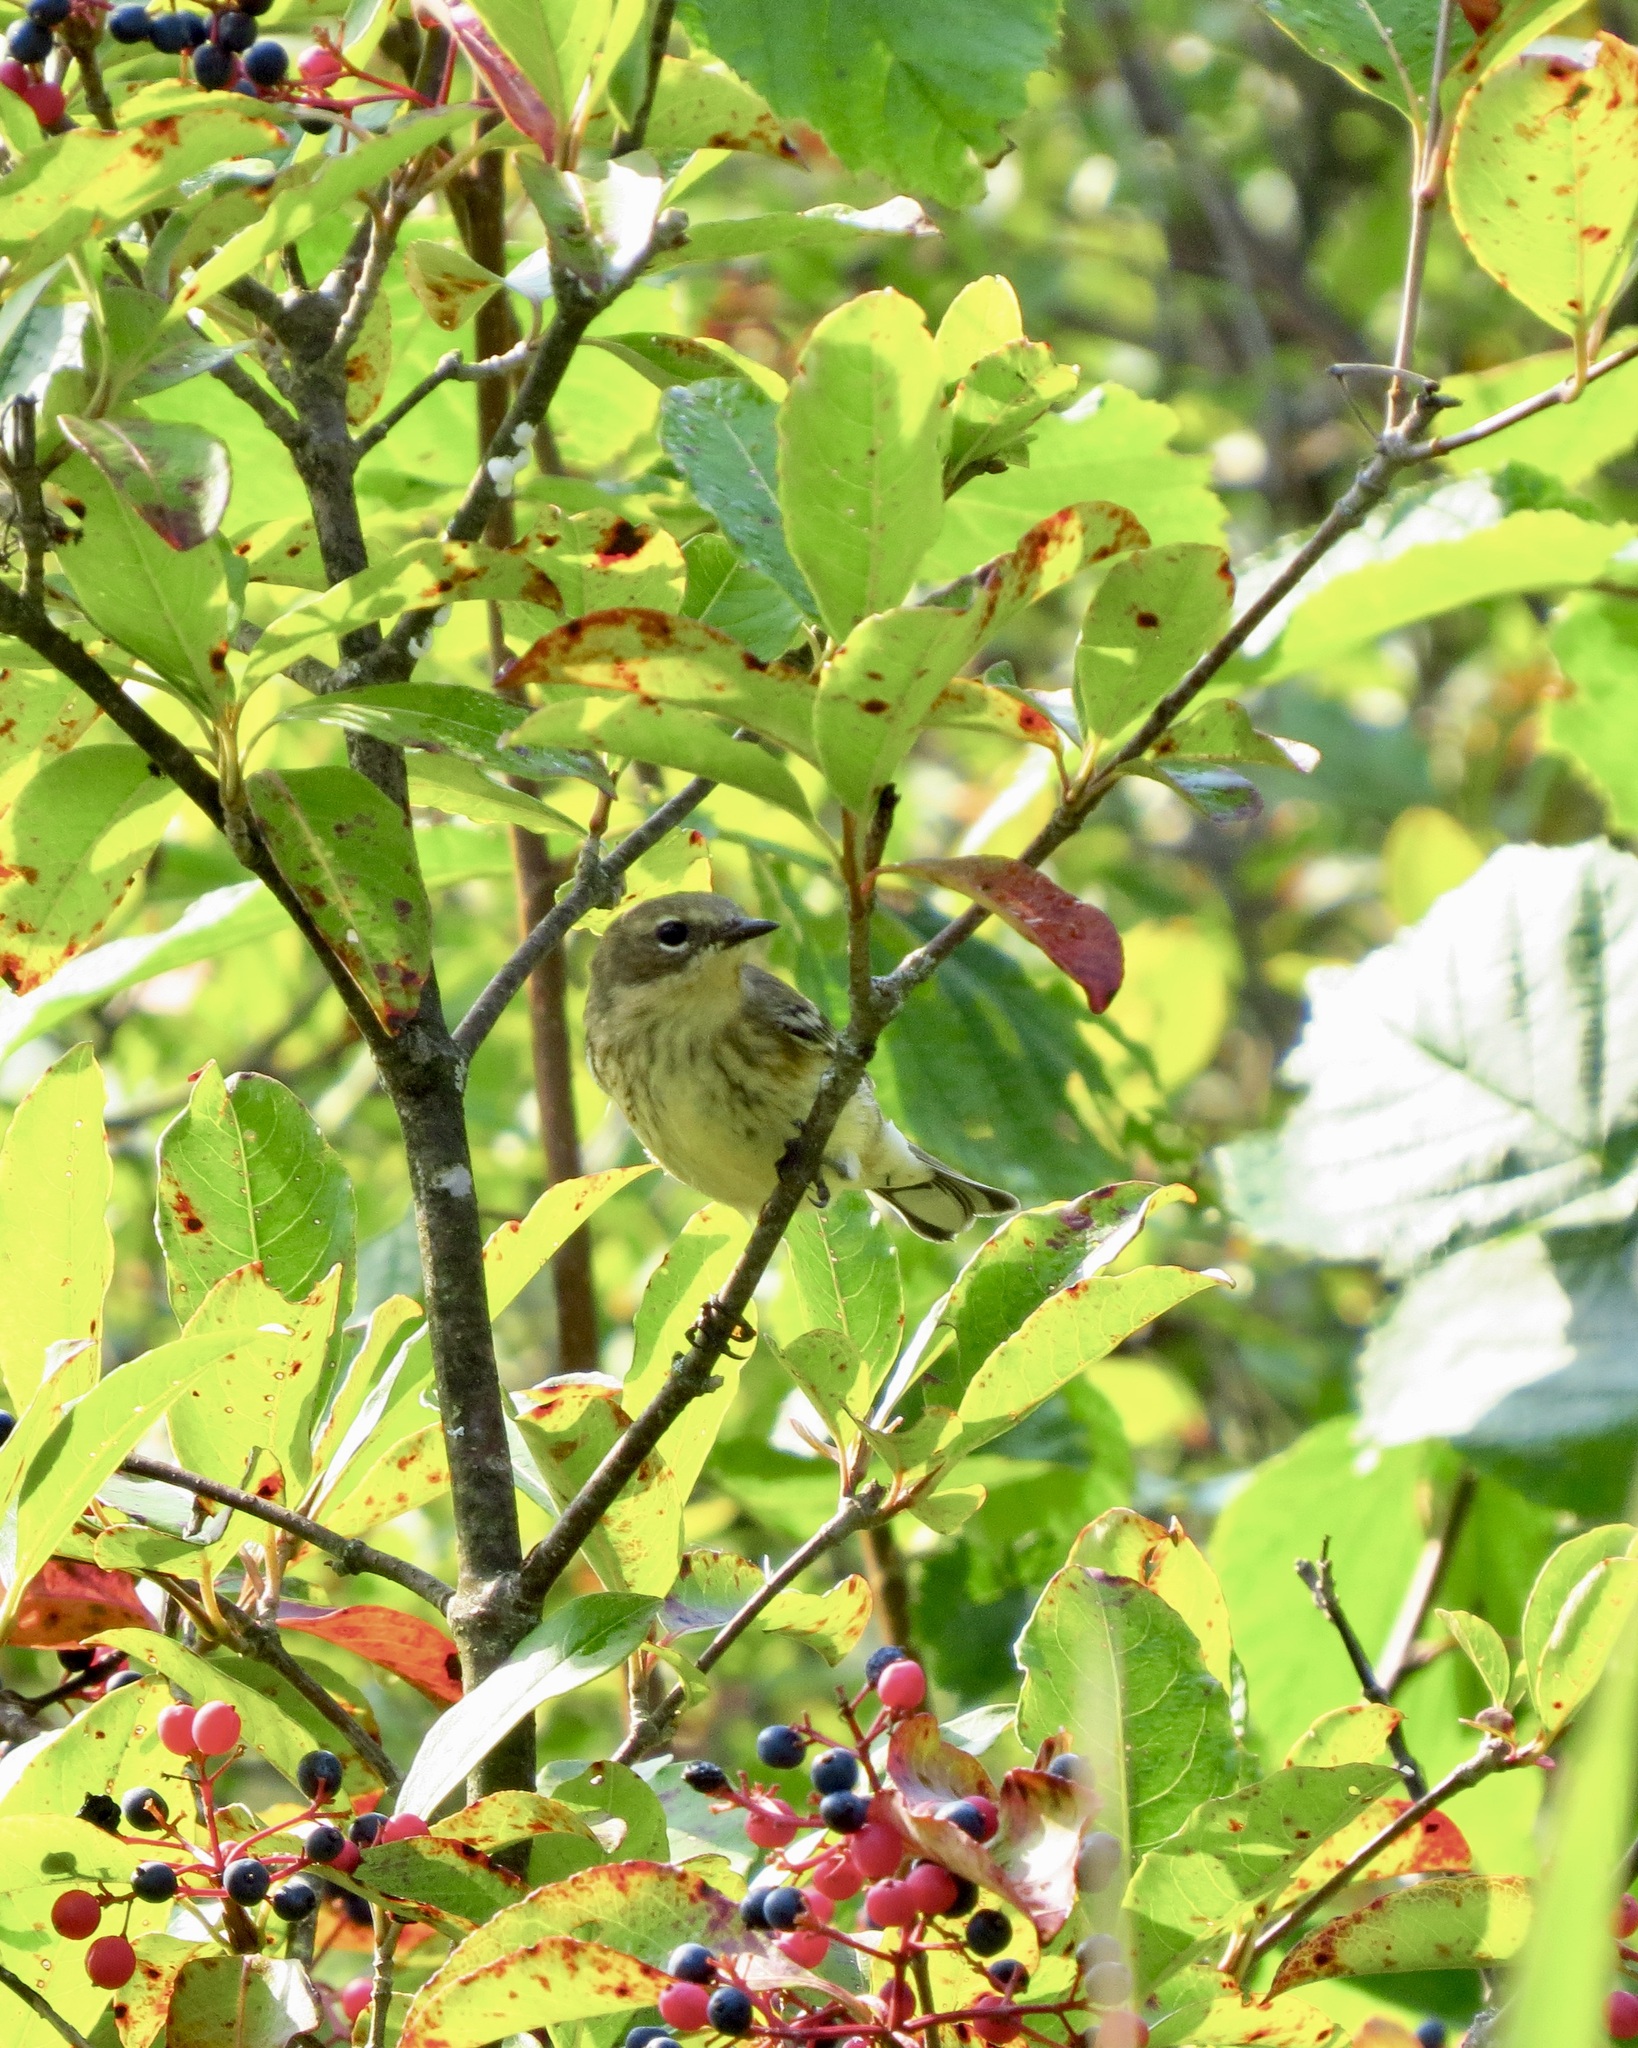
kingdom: Animalia
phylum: Chordata
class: Aves
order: Passeriformes
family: Parulidae
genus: Setophaga
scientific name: Setophaga coronata
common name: Myrtle warbler
